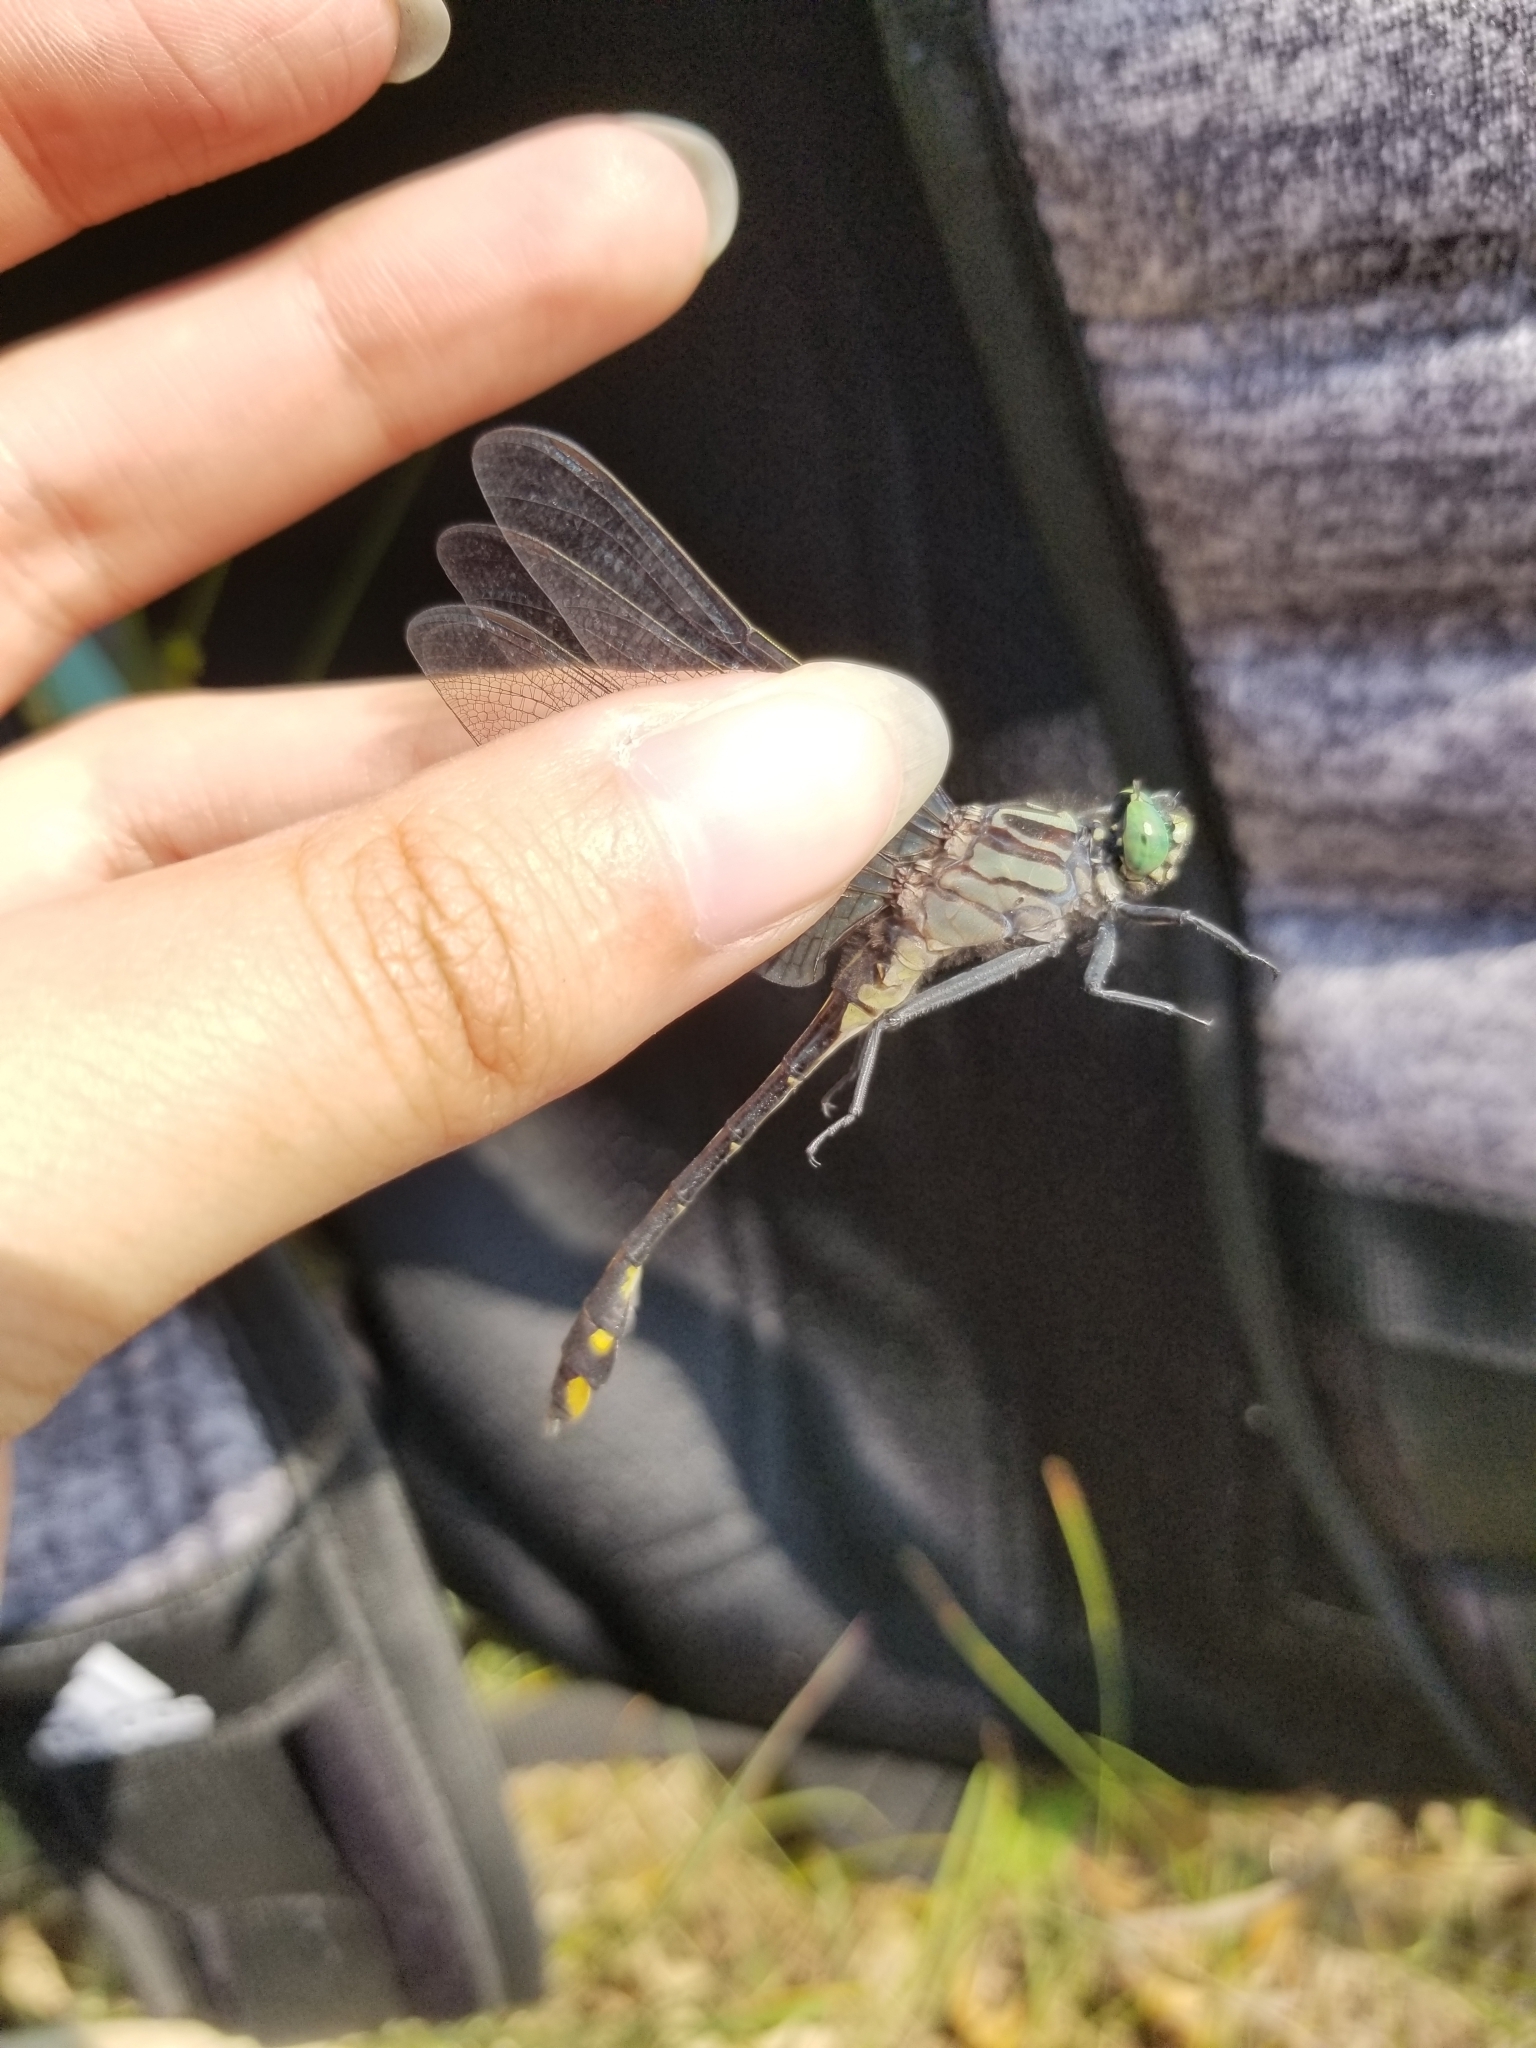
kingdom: Animalia
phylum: Arthropoda
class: Insecta
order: Odonata
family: Gomphidae
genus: Gomphurus
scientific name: Gomphurus vastus
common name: Cobra clubtail
